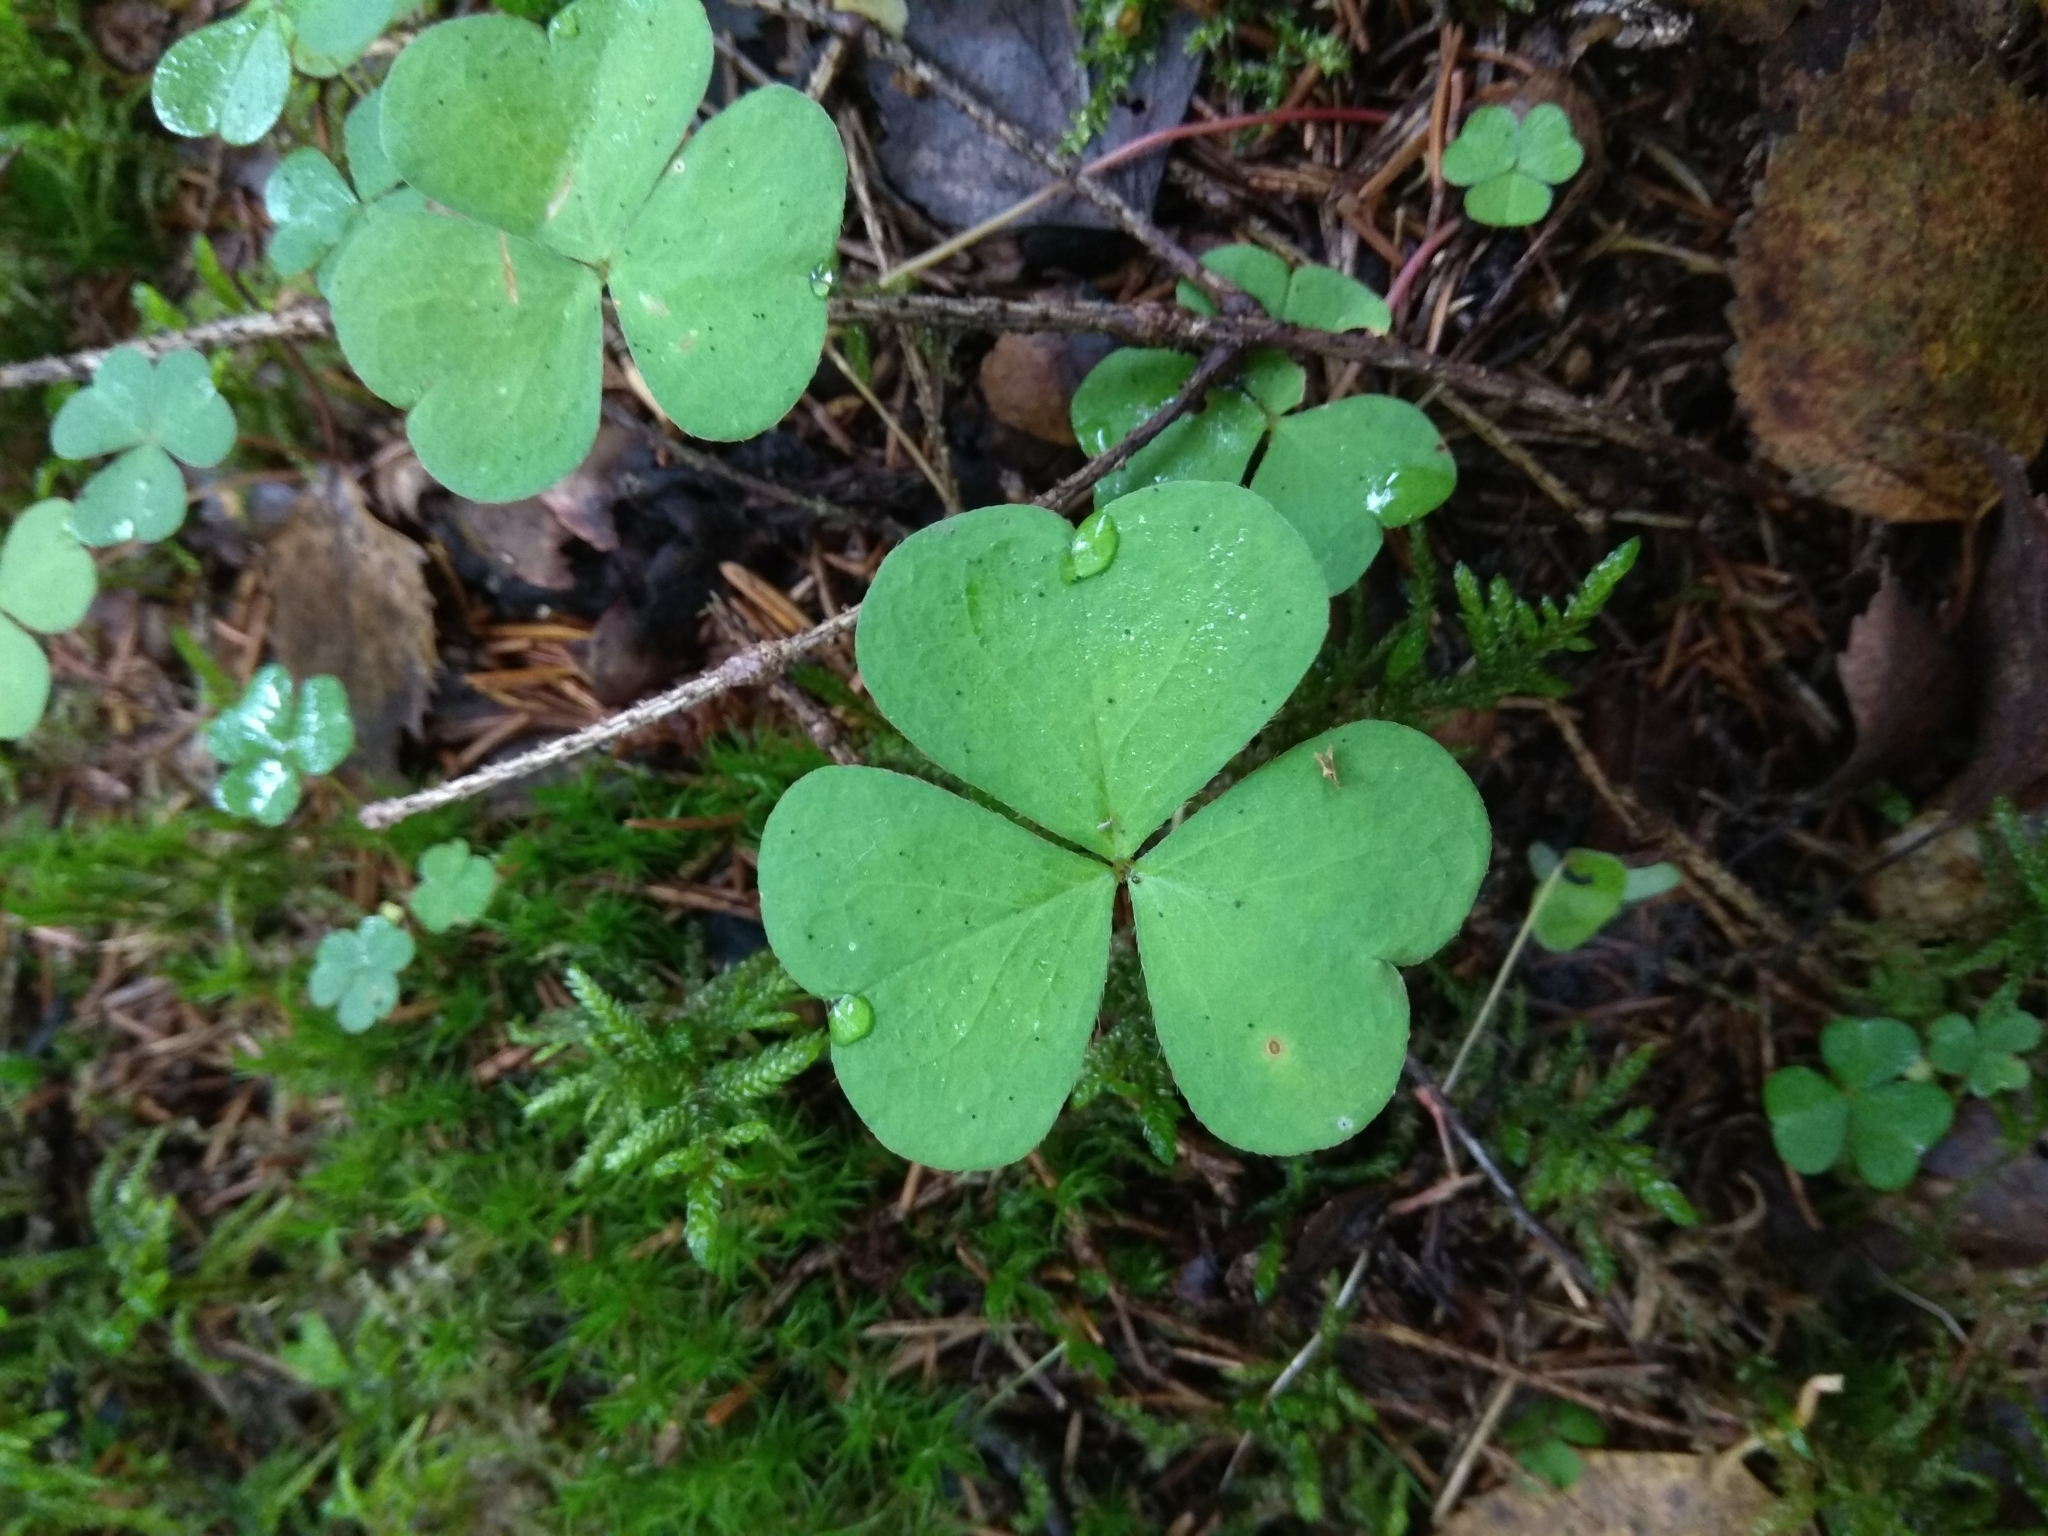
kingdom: Plantae
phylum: Tracheophyta
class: Magnoliopsida
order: Oxalidales
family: Oxalidaceae
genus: Oxalis
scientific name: Oxalis acetosella
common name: Wood-sorrel
